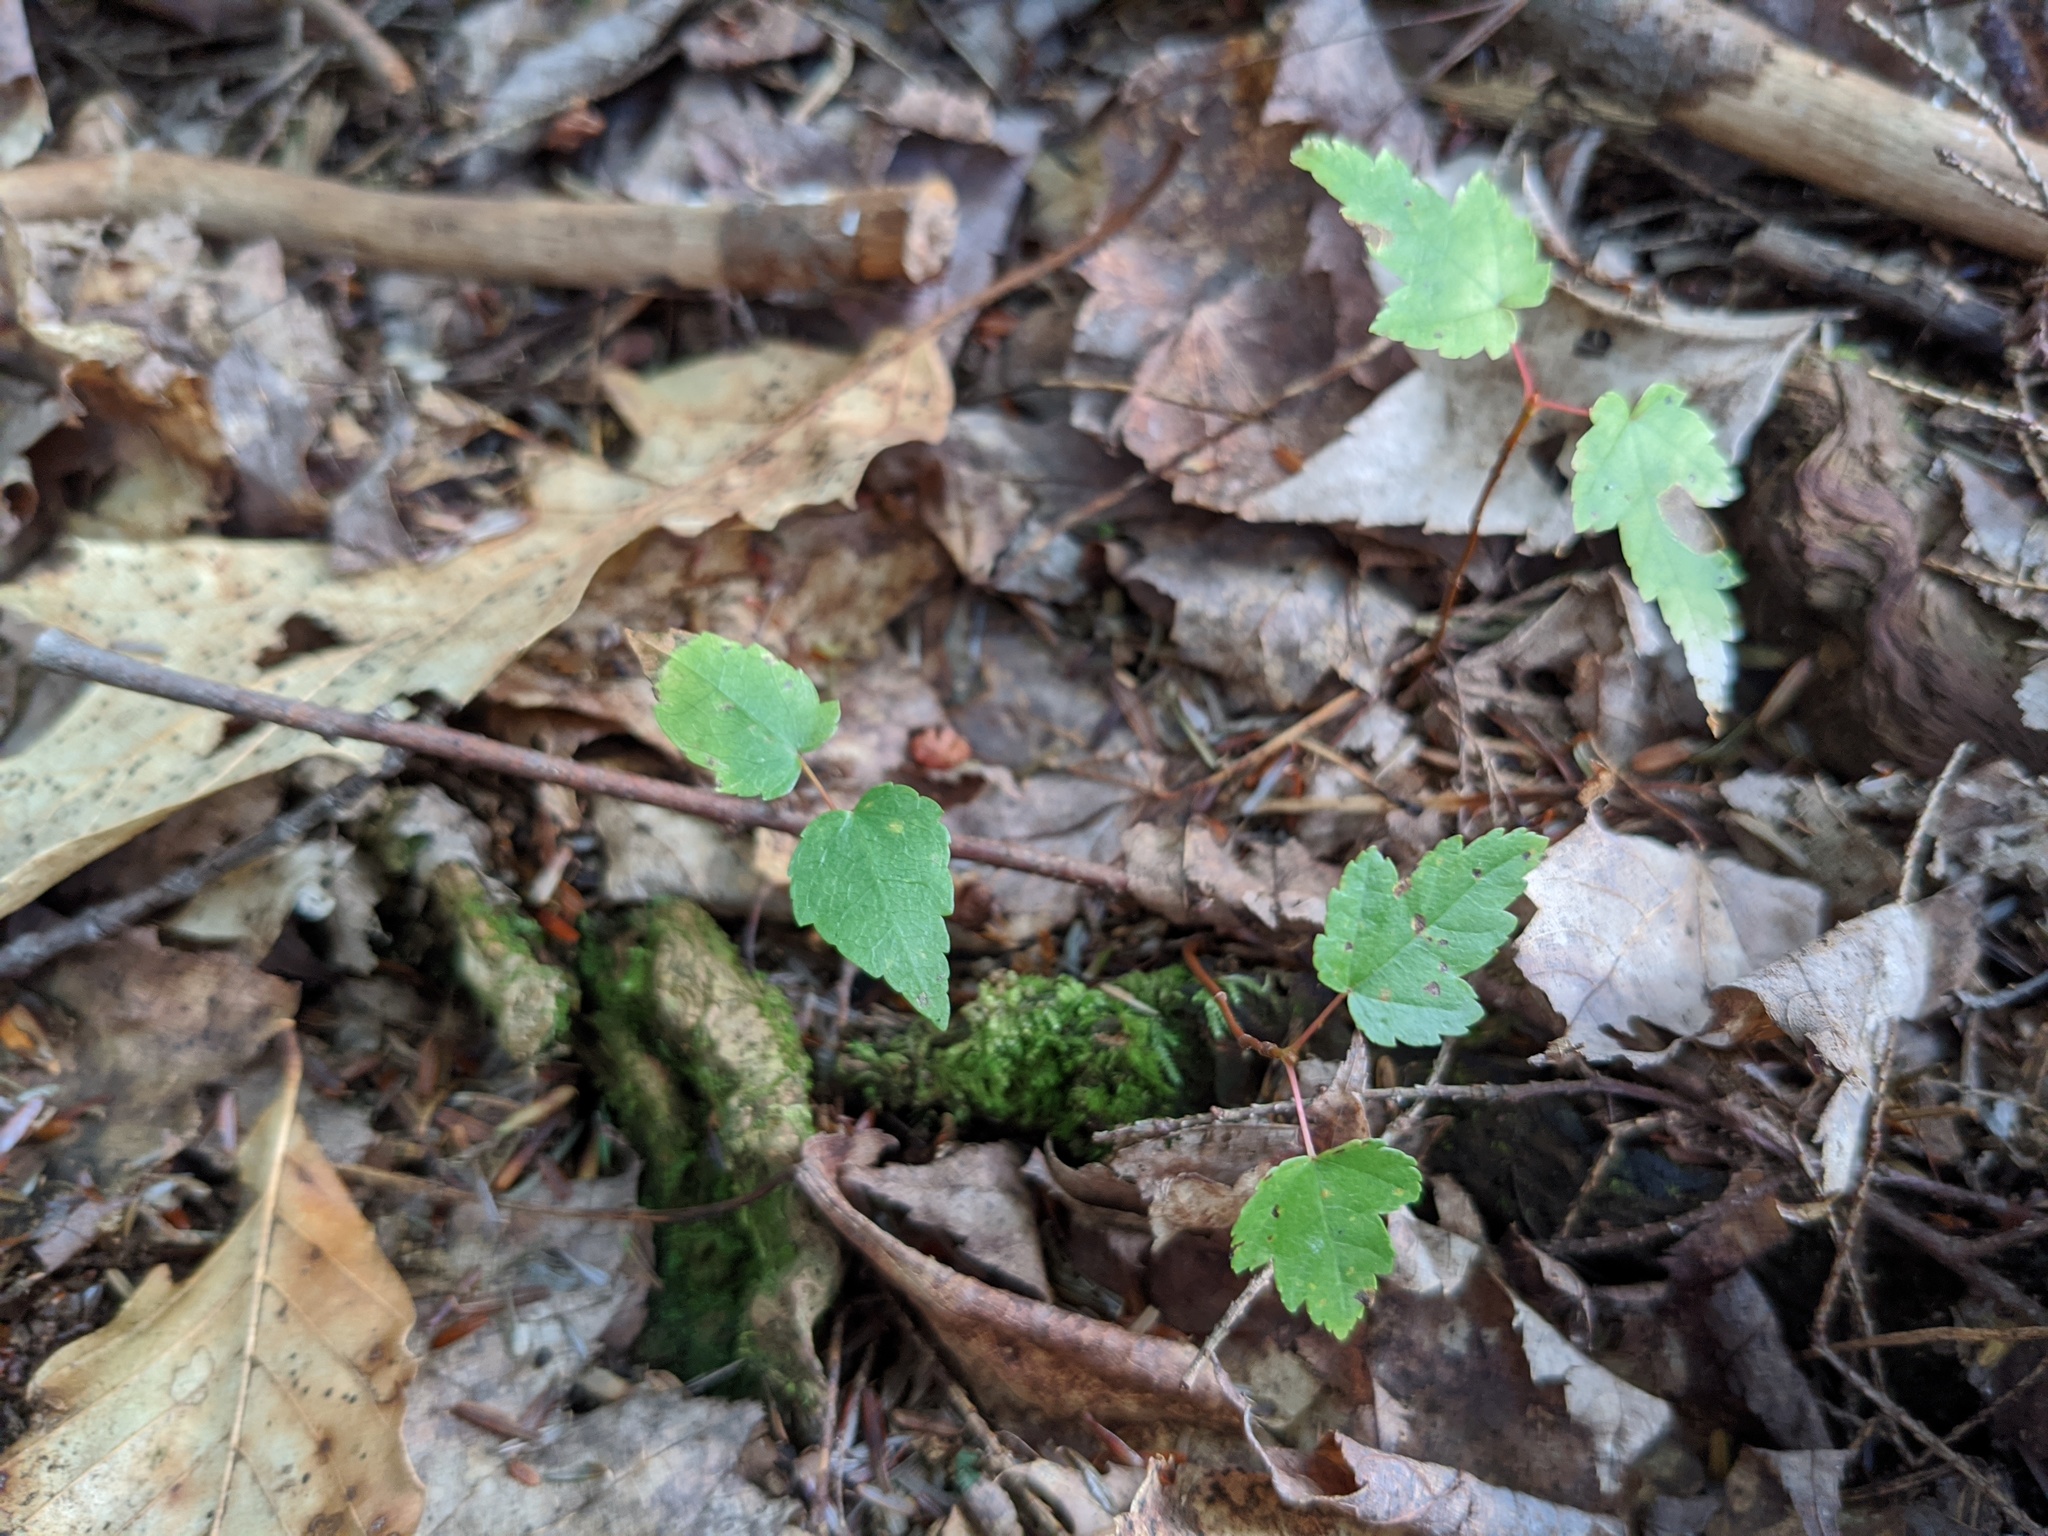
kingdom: Plantae
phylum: Tracheophyta
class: Magnoliopsida
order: Sapindales
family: Sapindaceae
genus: Acer
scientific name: Acer rubrum
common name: Red maple
